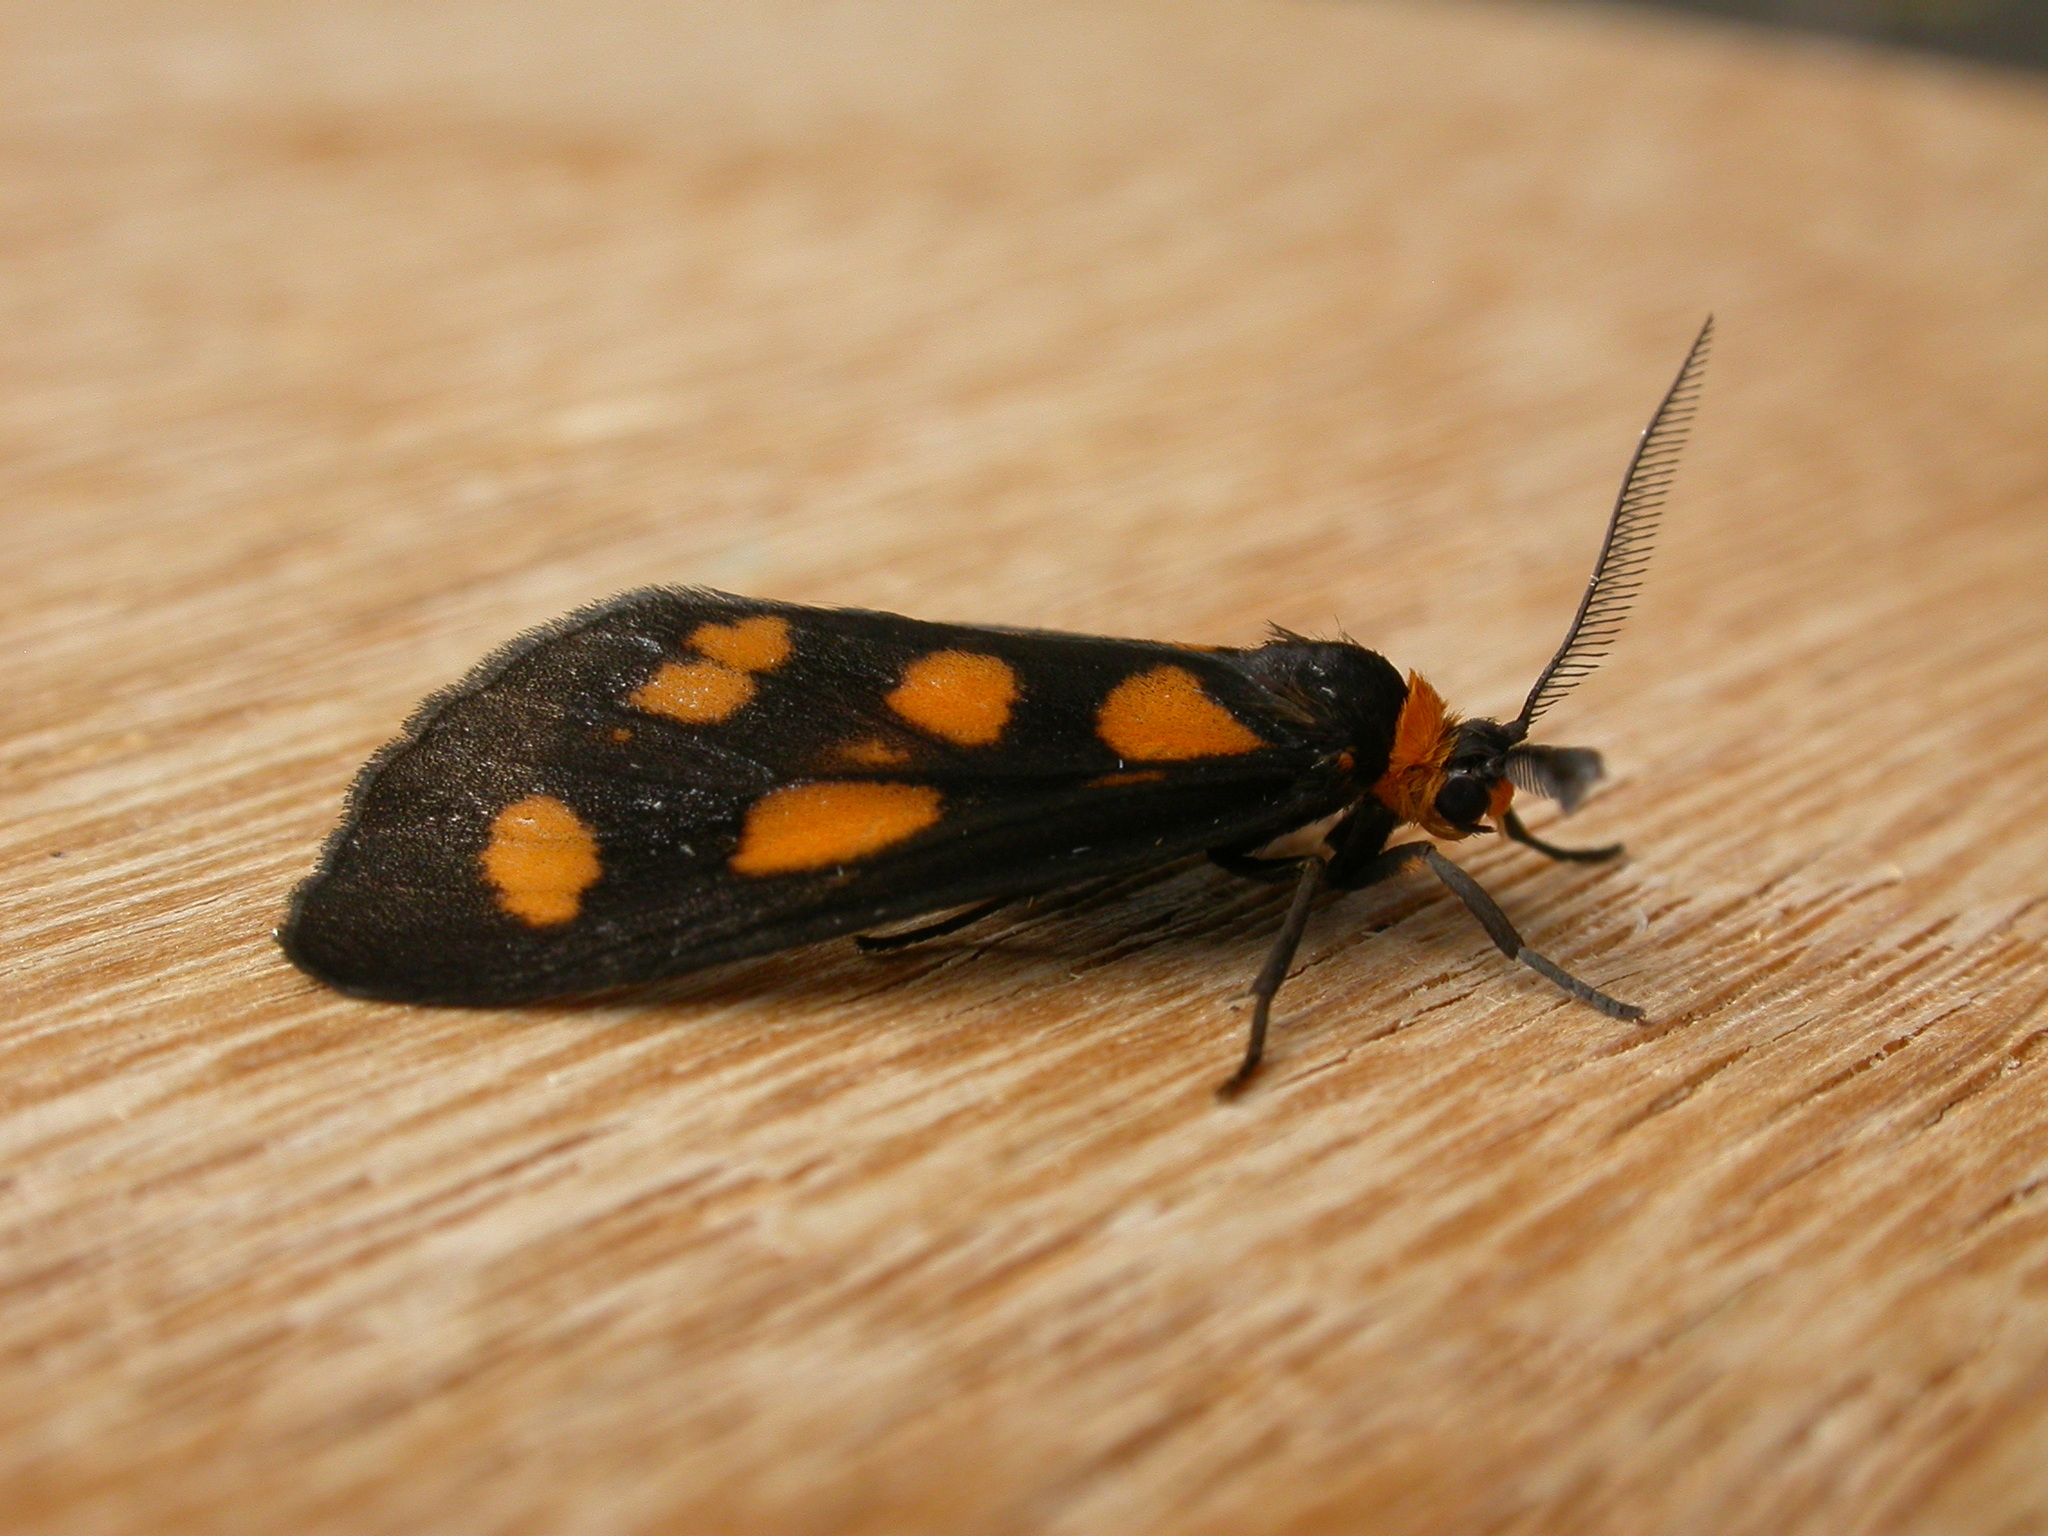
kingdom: Animalia
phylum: Arthropoda
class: Insecta
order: Lepidoptera
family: Erebidae
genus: Asura
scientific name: Asura cervicalis
